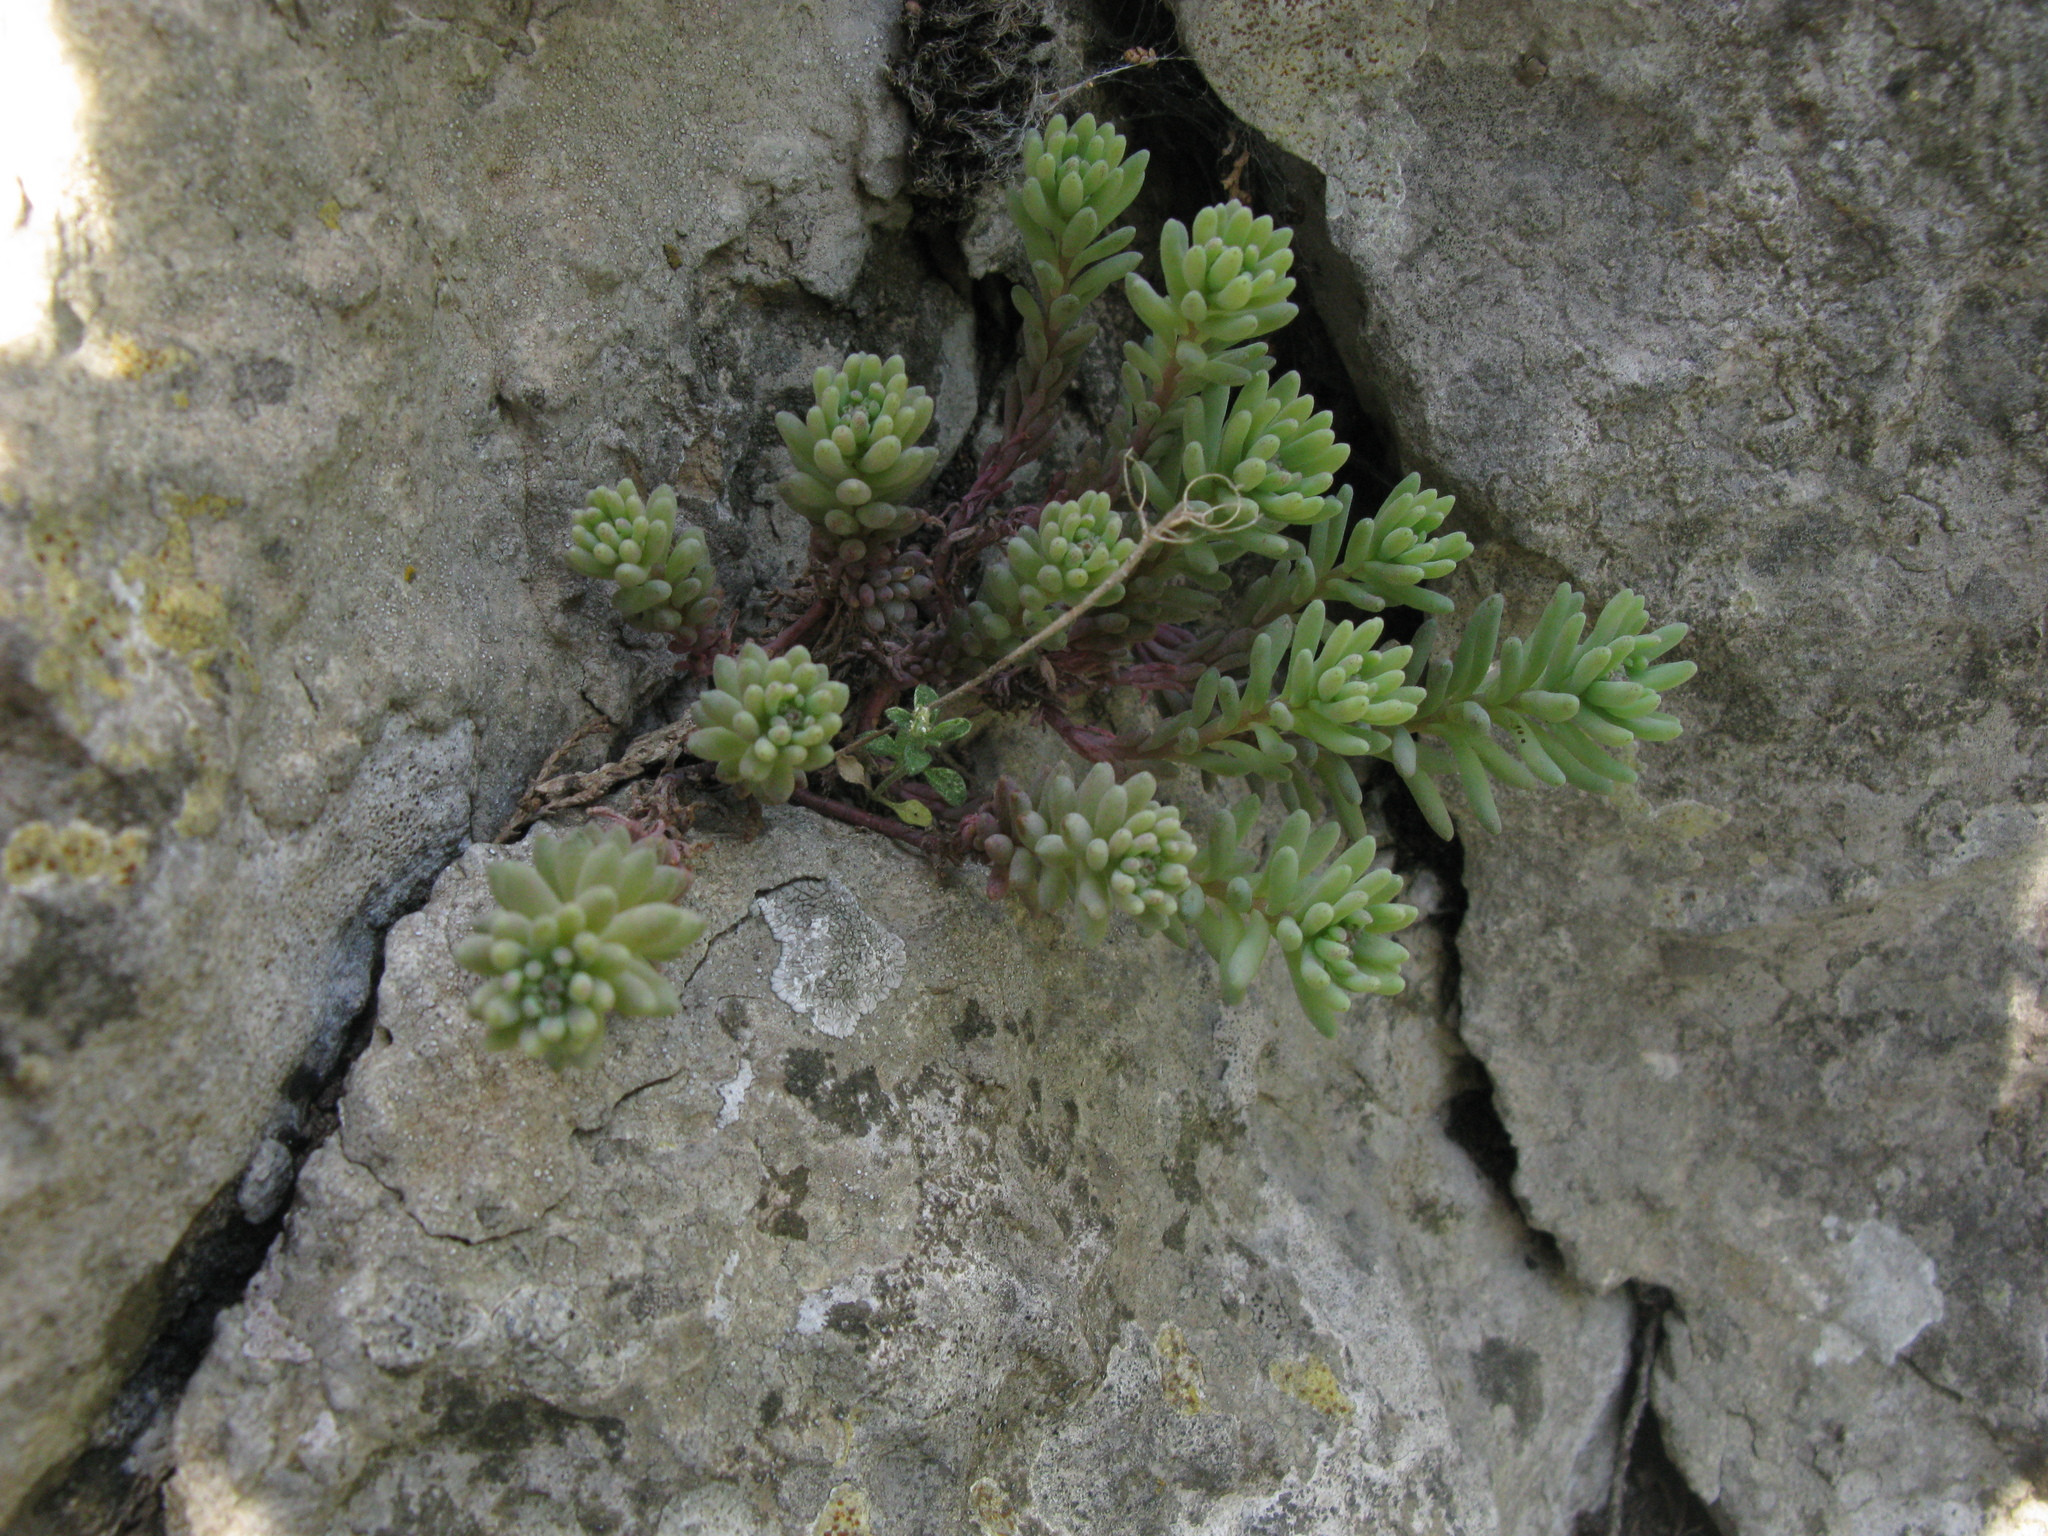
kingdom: Plantae
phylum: Tracheophyta
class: Magnoliopsida
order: Saxifragales
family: Crassulaceae
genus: Sedum
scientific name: Sedum hispanicum
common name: Spanish stonecrop
